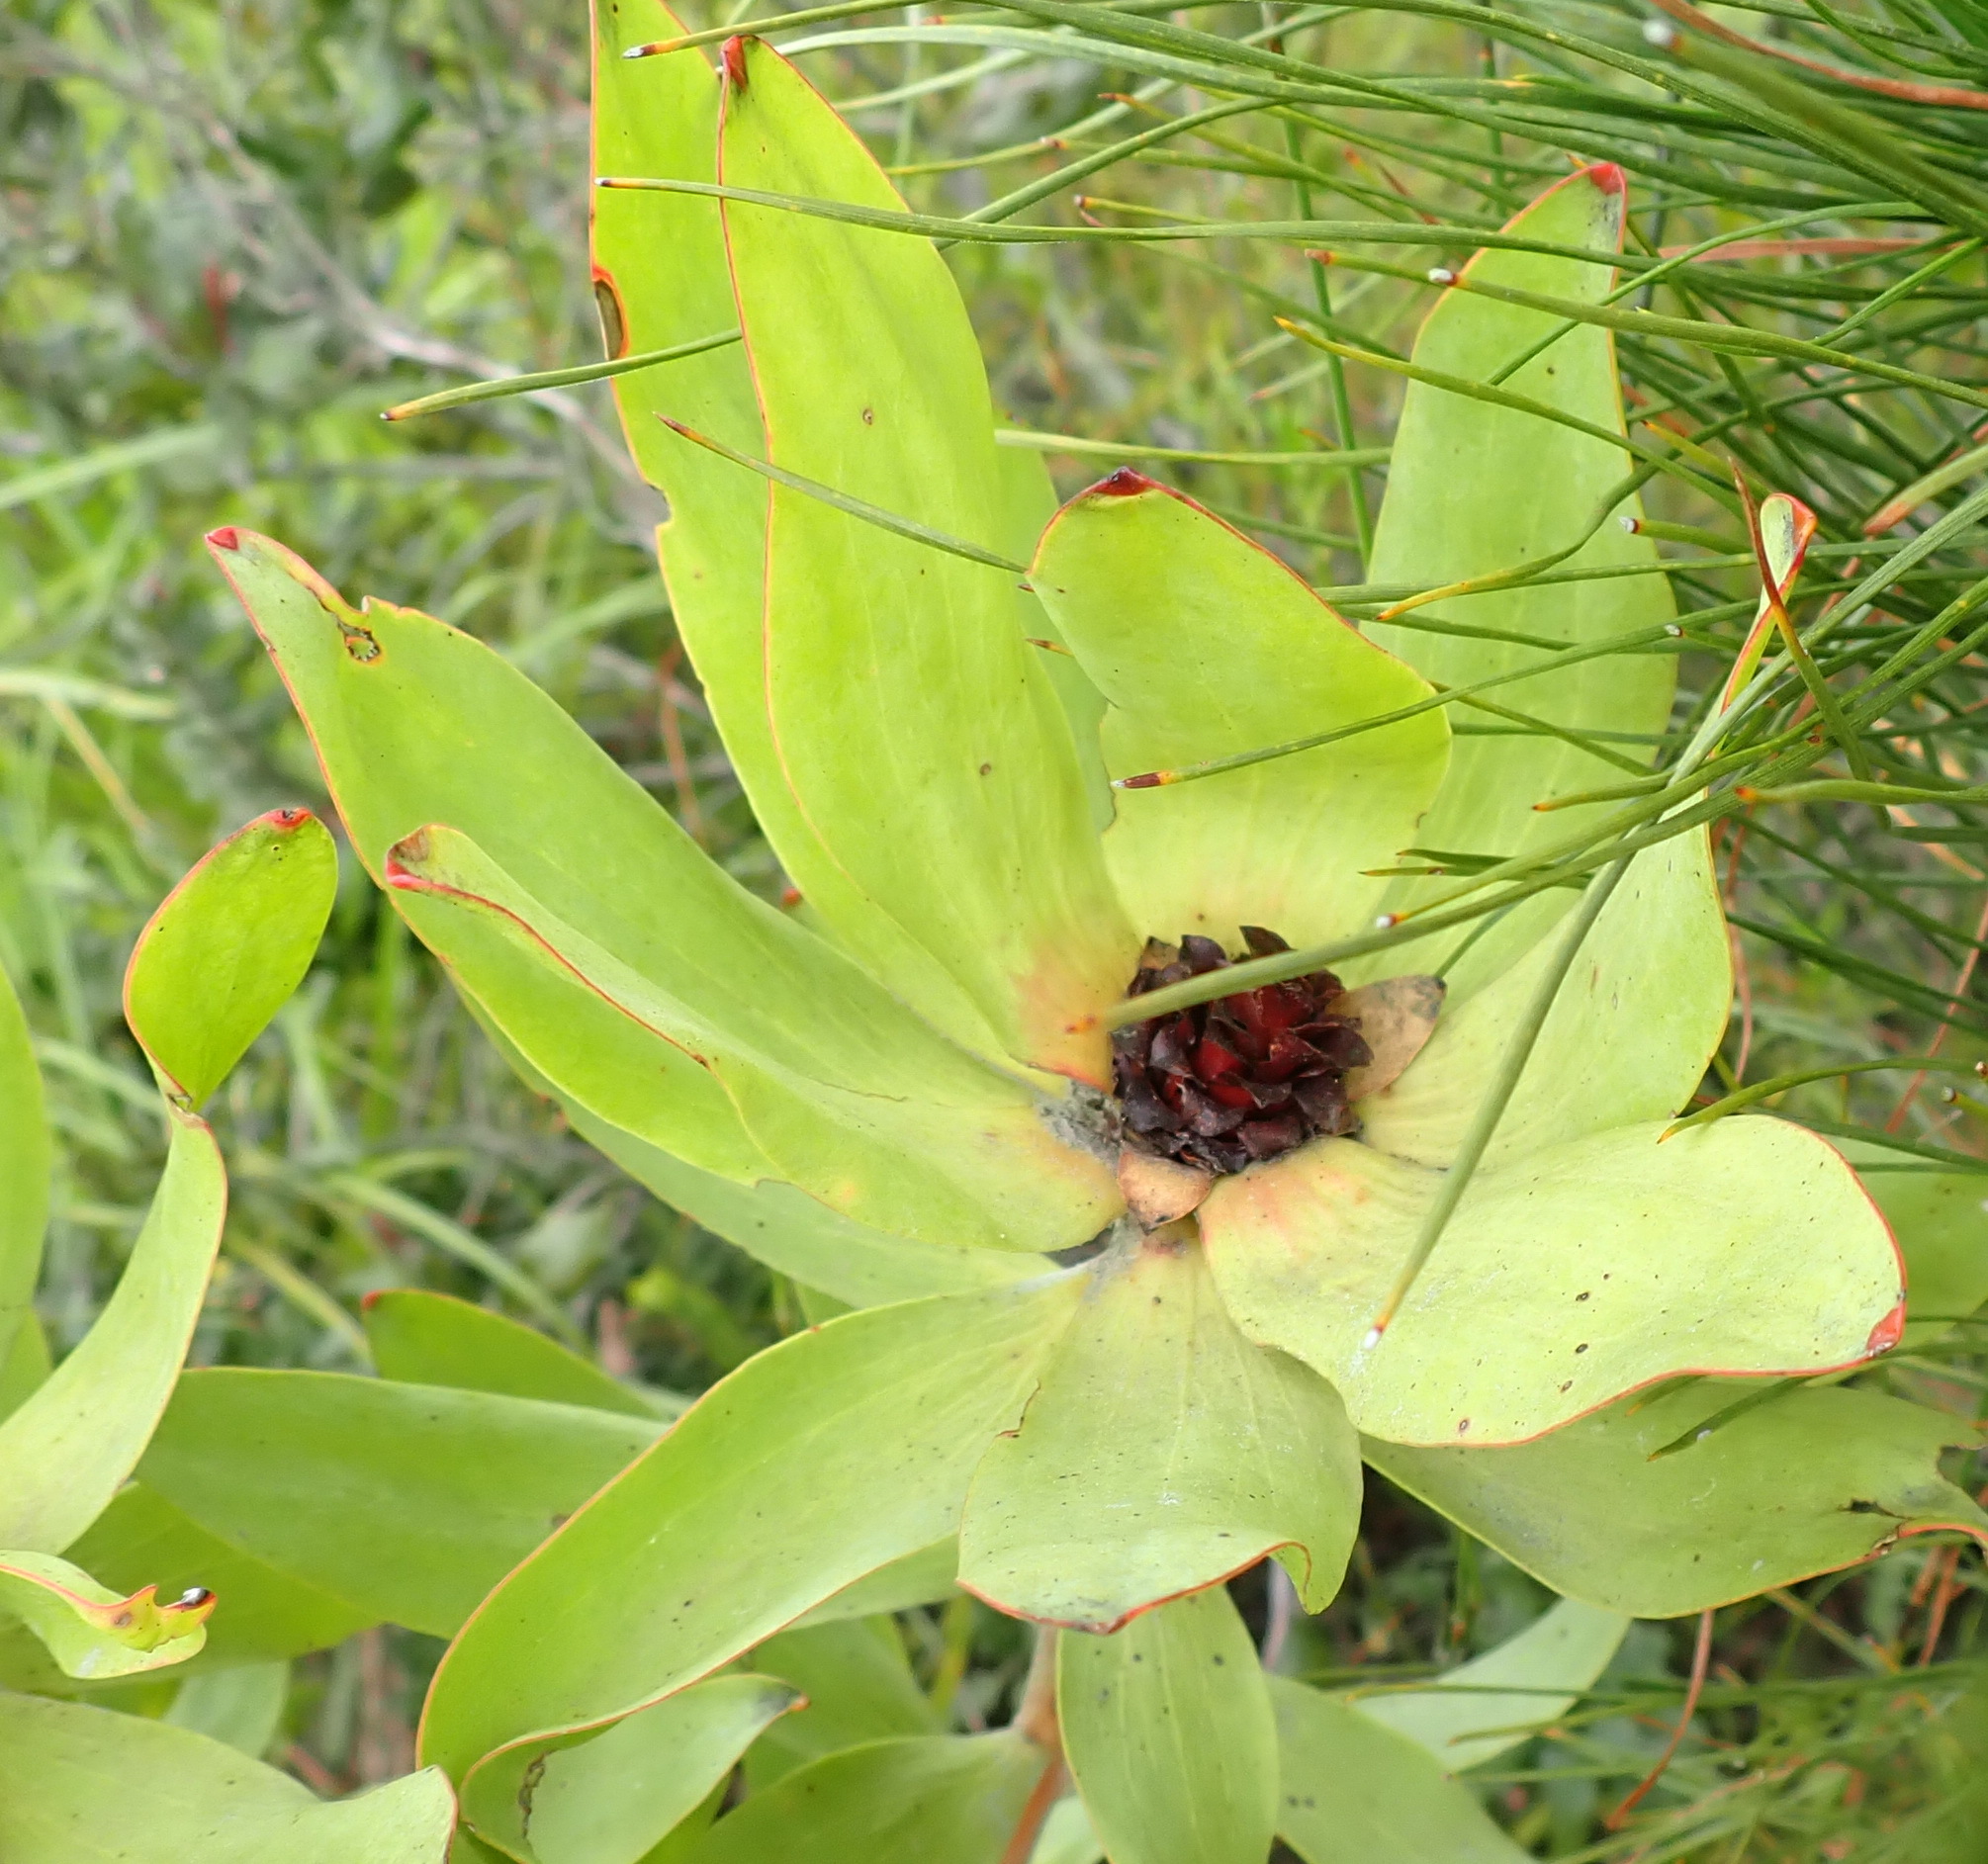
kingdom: Plantae
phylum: Tracheophyta
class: Magnoliopsida
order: Proteales
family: Proteaceae
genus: Leucadendron
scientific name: Leucadendron pubibracteolatum
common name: Purple-leaf conebush
